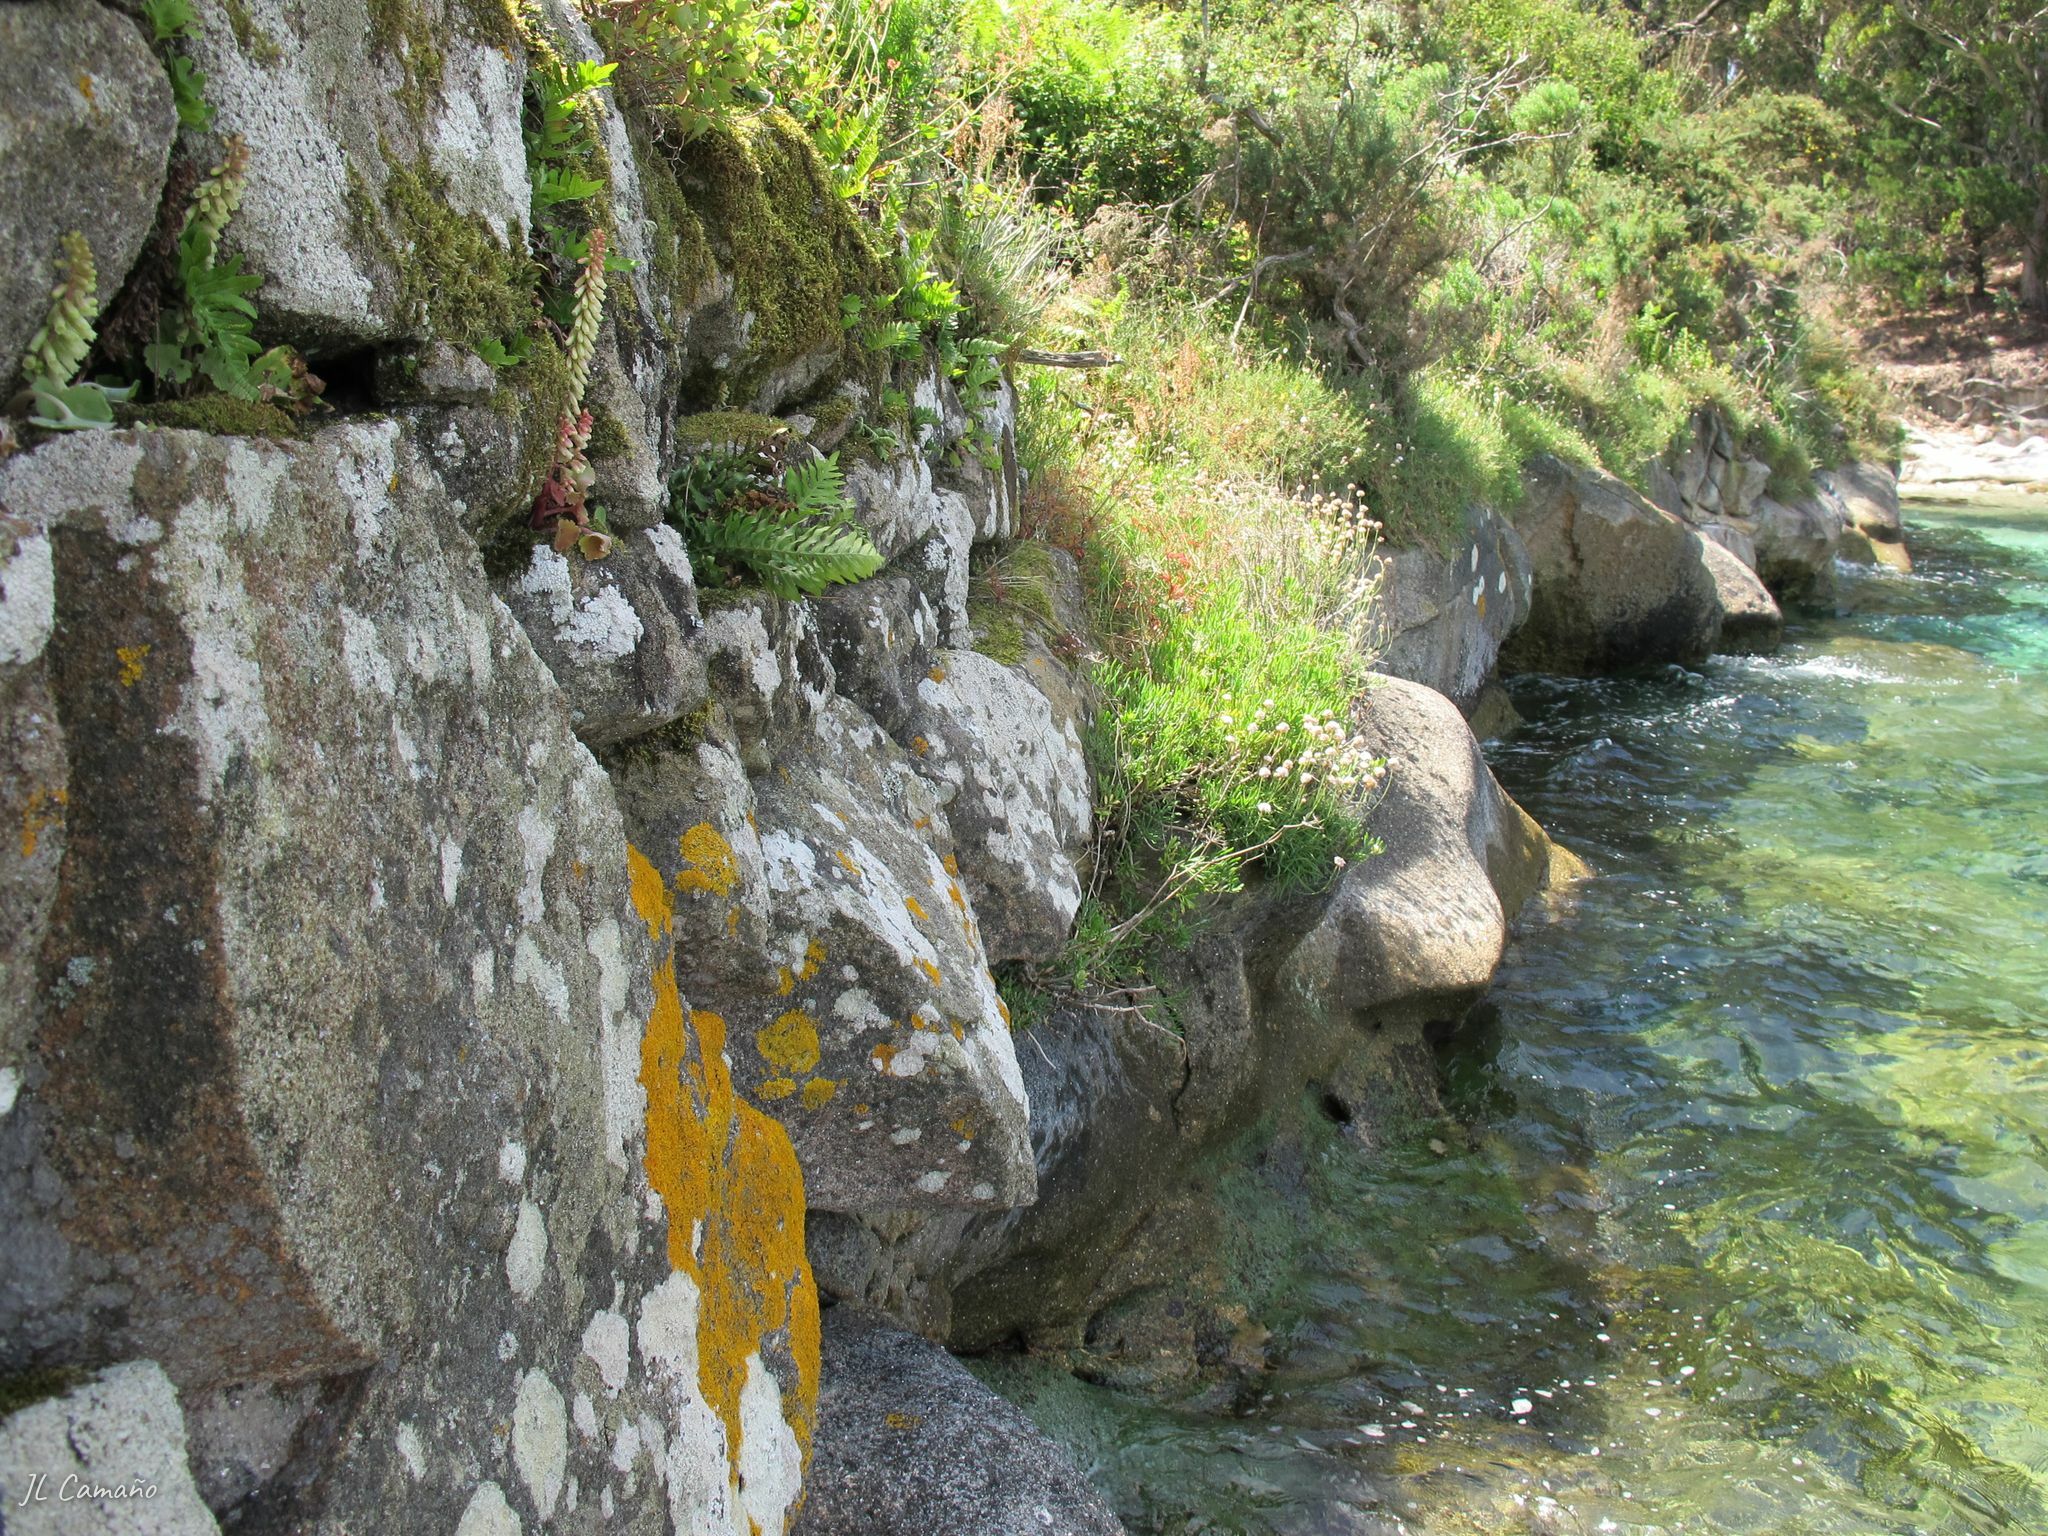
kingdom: Plantae
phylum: Bryophyta
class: Bryopsida
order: Bryales
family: Bryaceae
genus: Rosulabryum
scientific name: Rosulabryum capillare
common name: Capillary thread-moss
